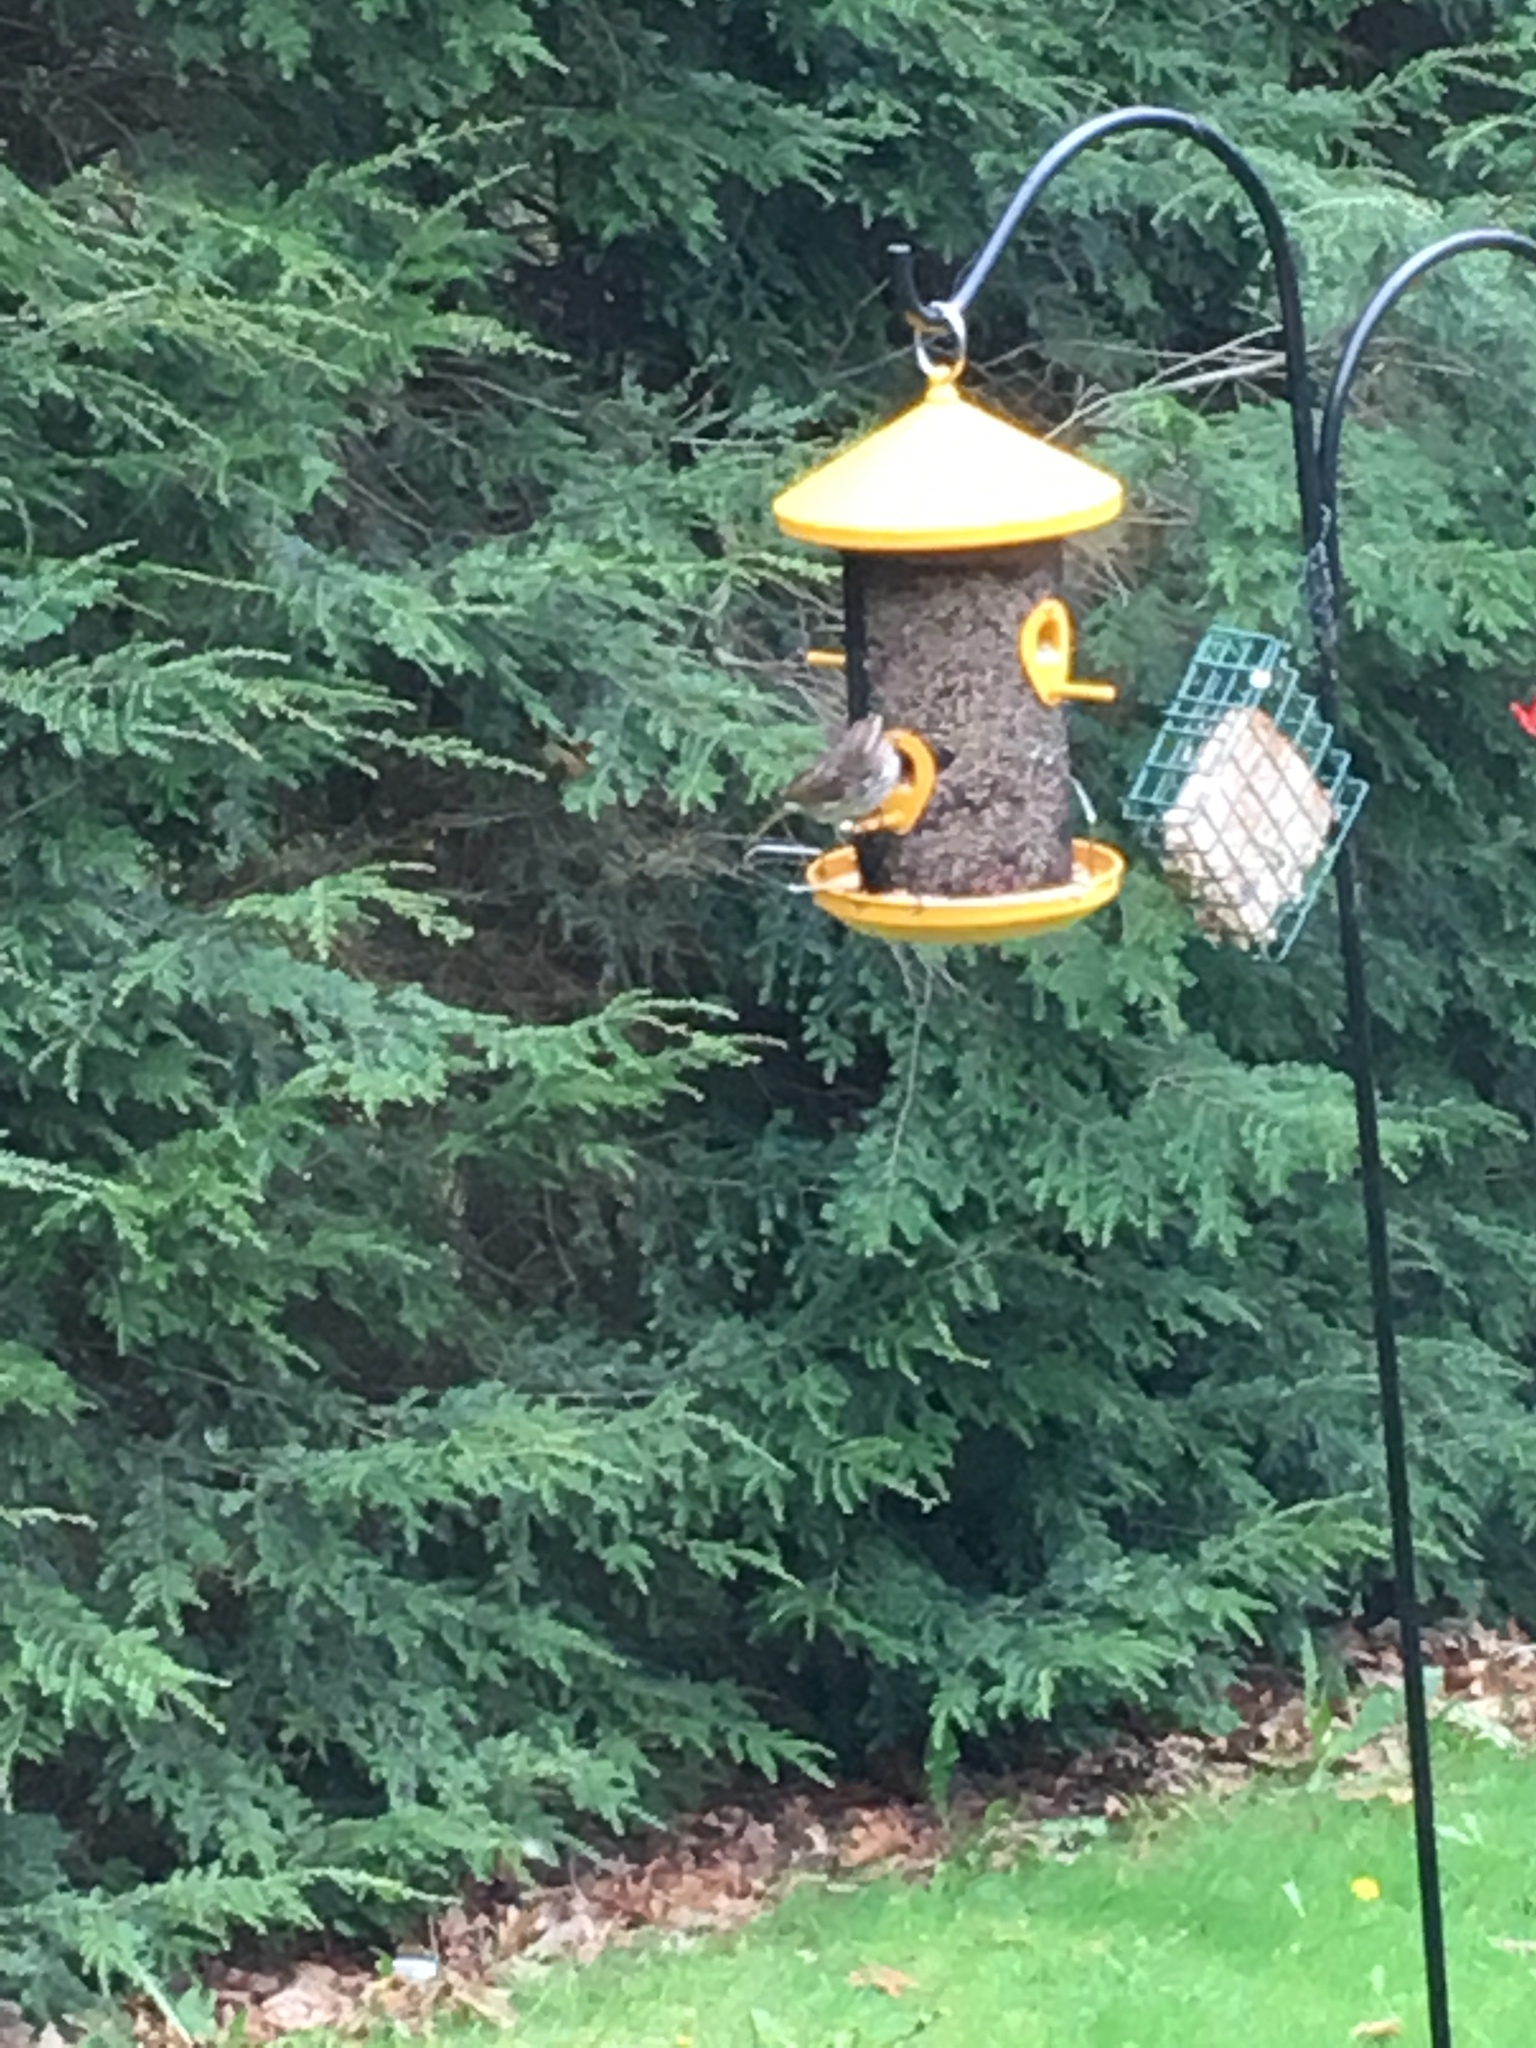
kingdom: Animalia
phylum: Chordata
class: Aves
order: Passeriformes
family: Passerellidae
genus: Melospiza
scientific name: Melospiza melodia
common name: Song sparrow
